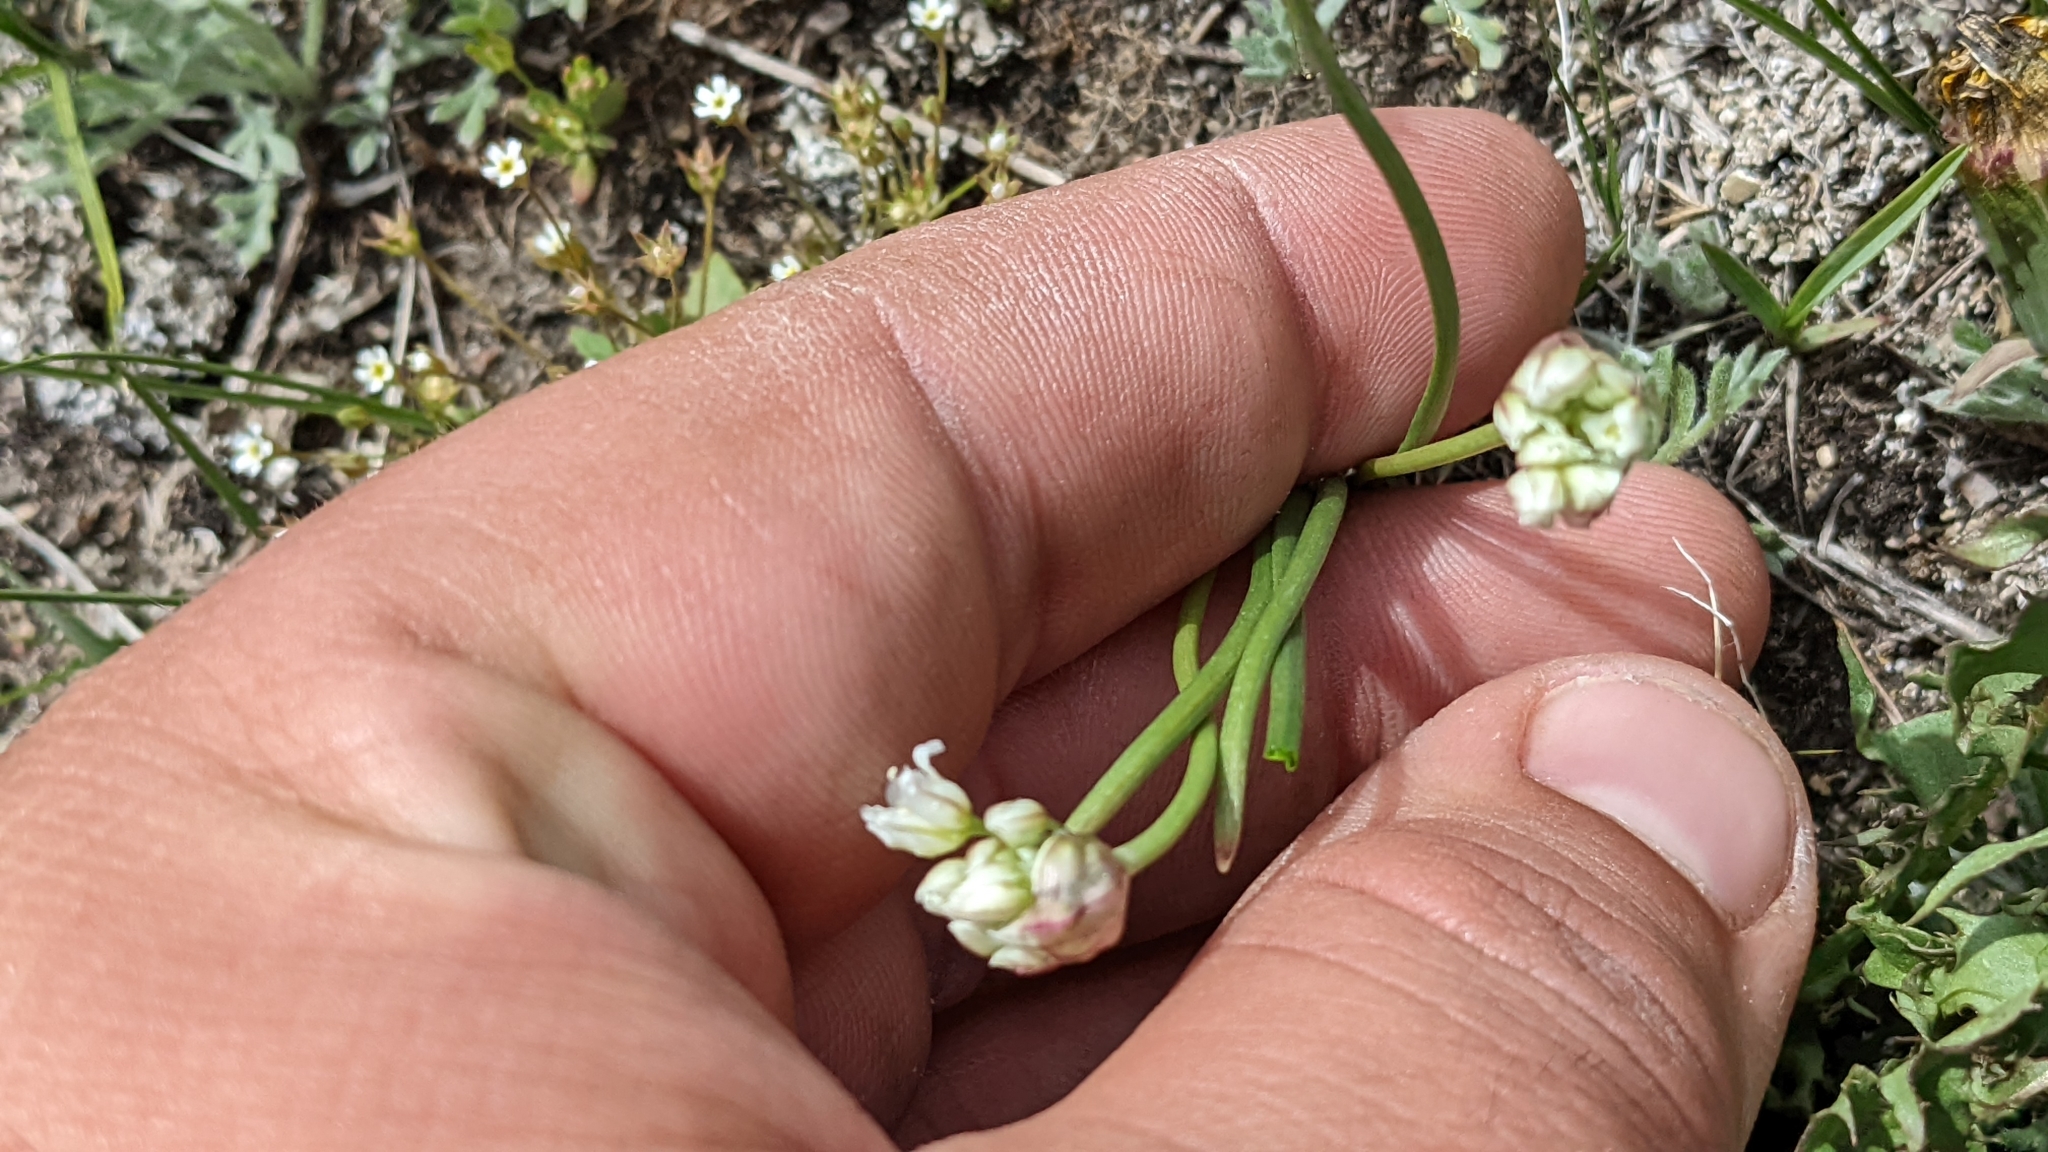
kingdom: Plantae
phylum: Tracheophyta
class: Liliopsida
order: Asparagales
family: Amaryllidaceae
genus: Allium
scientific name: Allium textile
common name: Prairie onion
